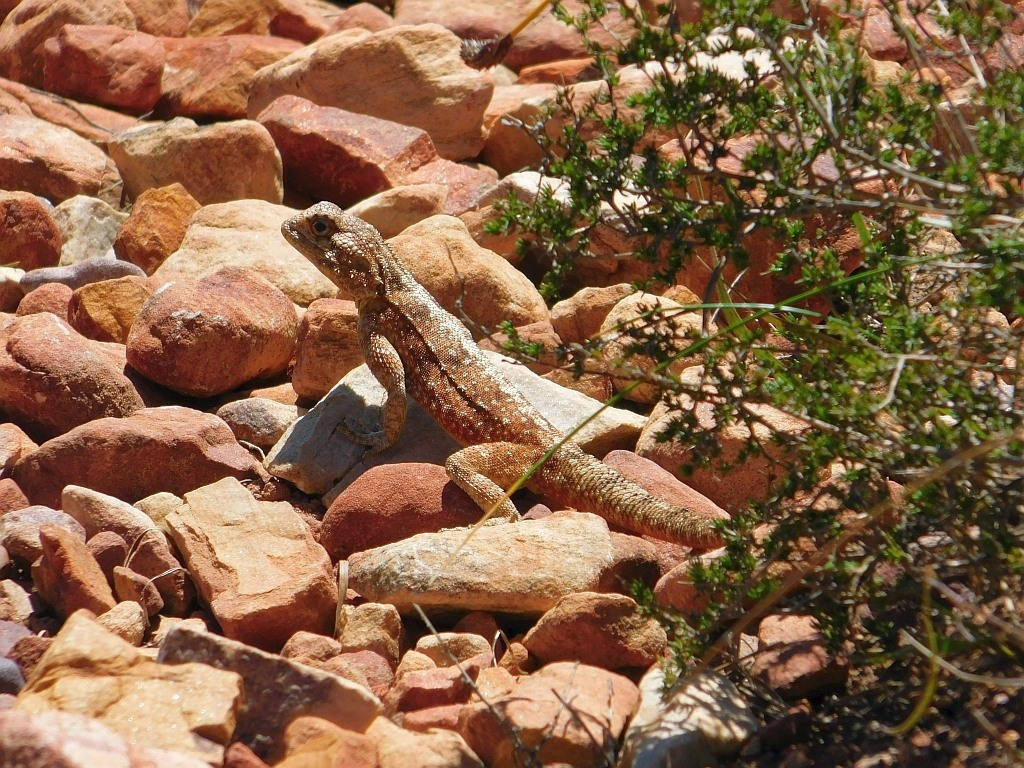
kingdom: Animalia
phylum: Chordata
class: Squamata
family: Agamidae
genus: Agama
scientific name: Agama atra
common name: Southern african rock agama
